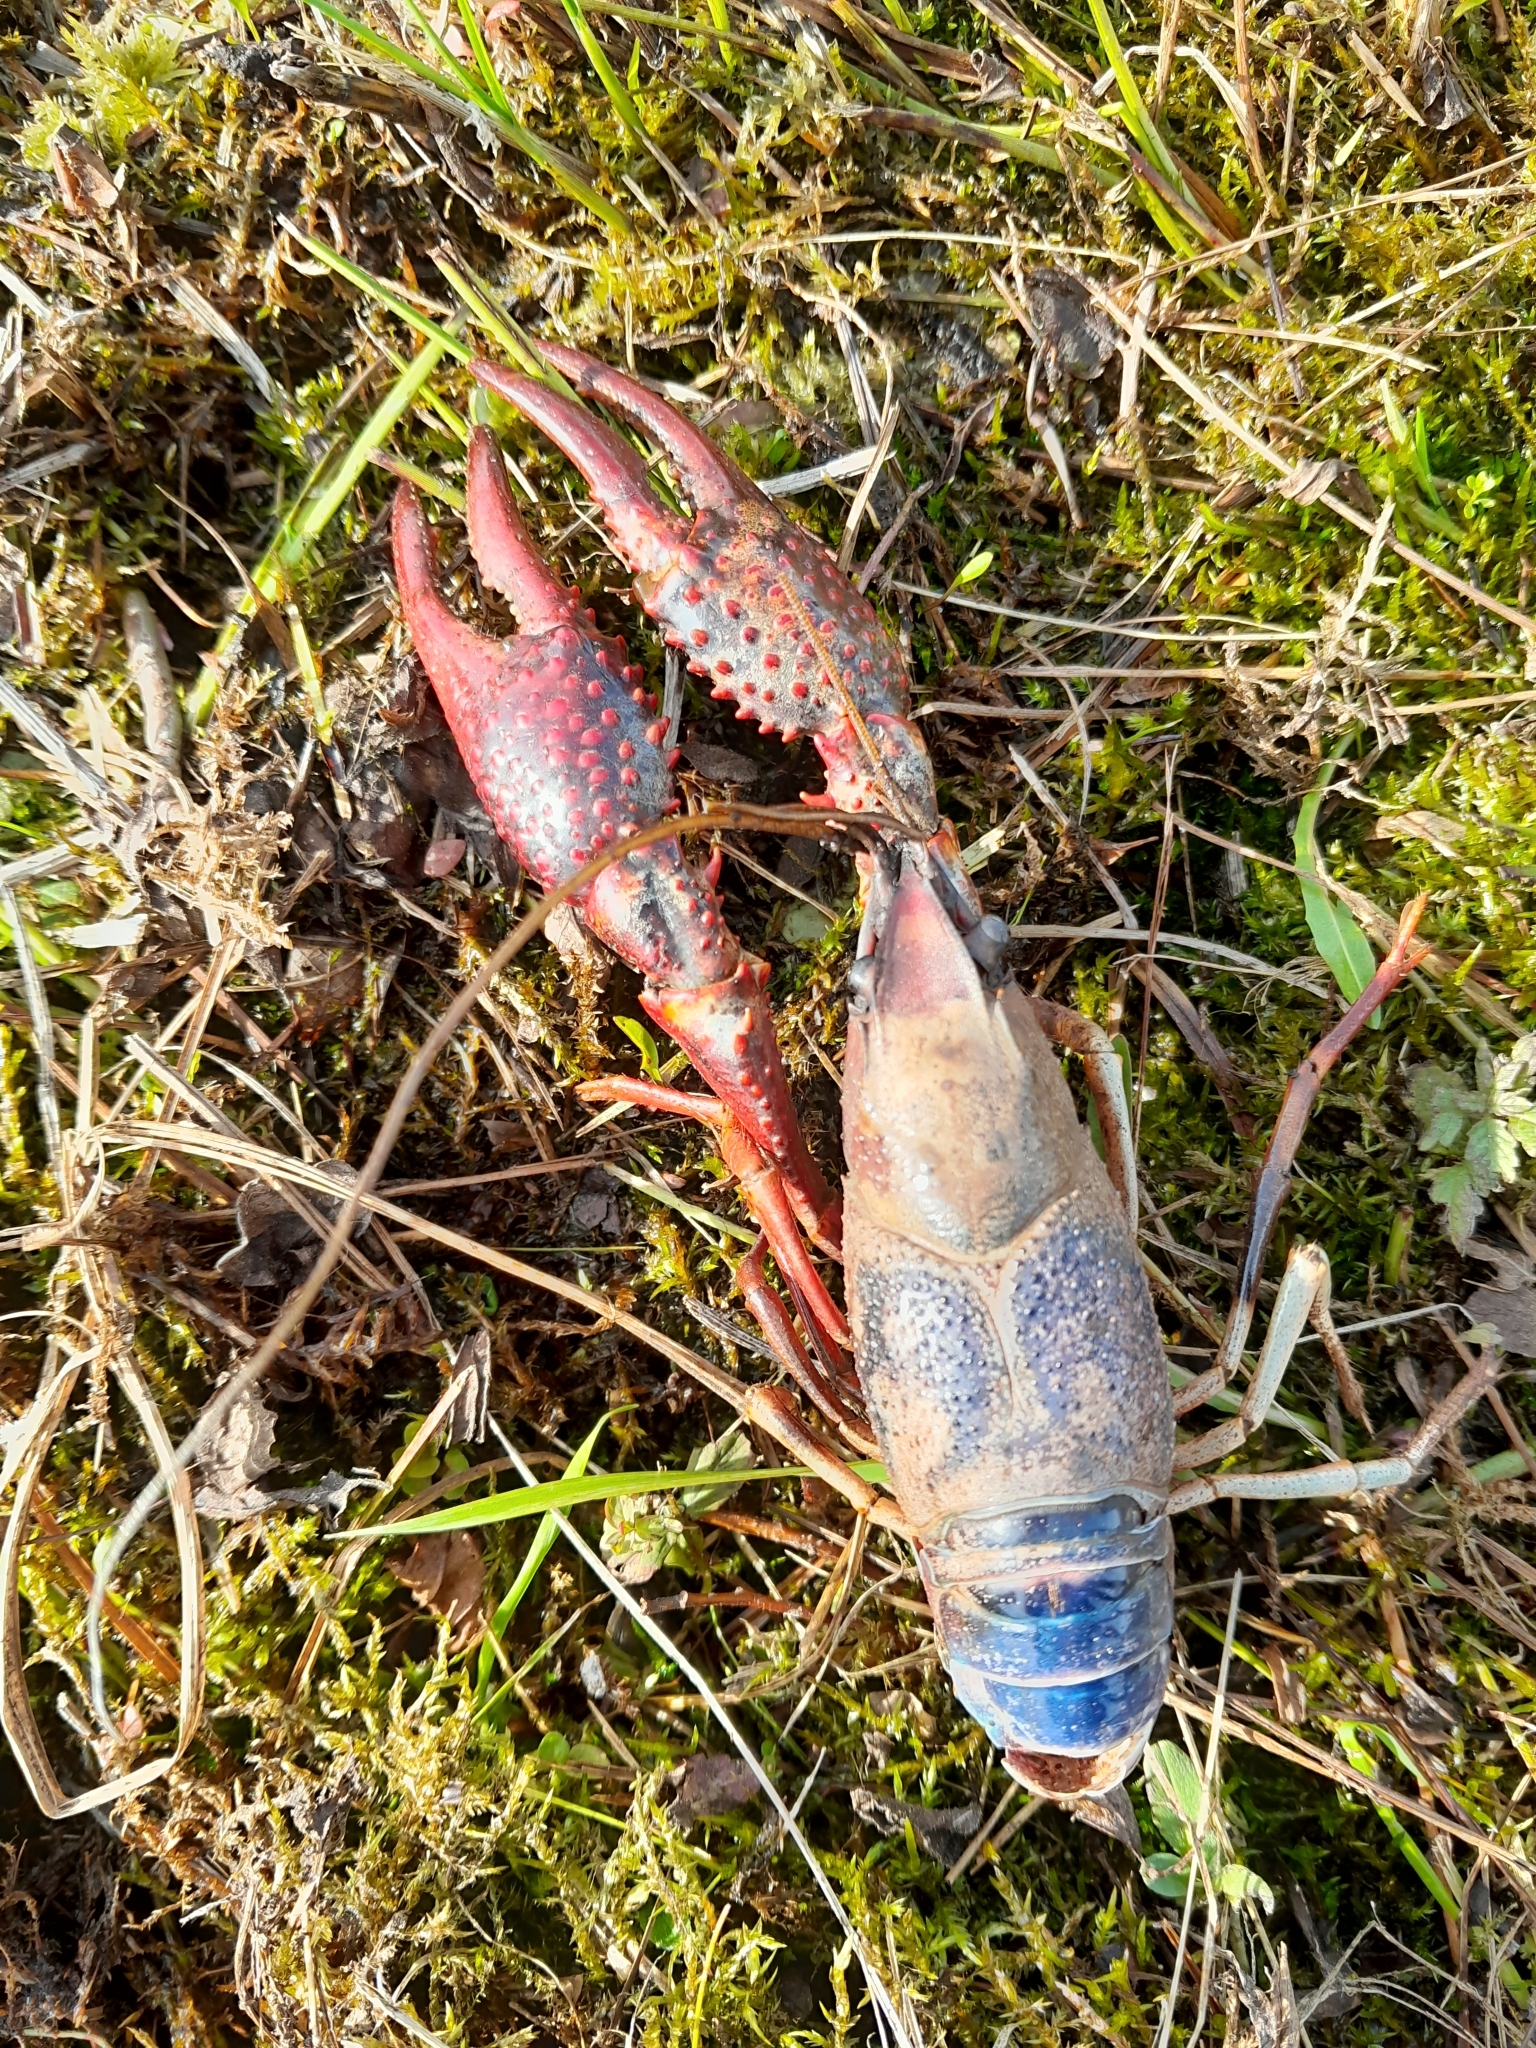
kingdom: Animalia
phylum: Arthropoda
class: Malacostraca
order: Decapoda
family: Cambaridae
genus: Procambarus
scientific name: Procambarus clarkii
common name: Red swamp crayfish
